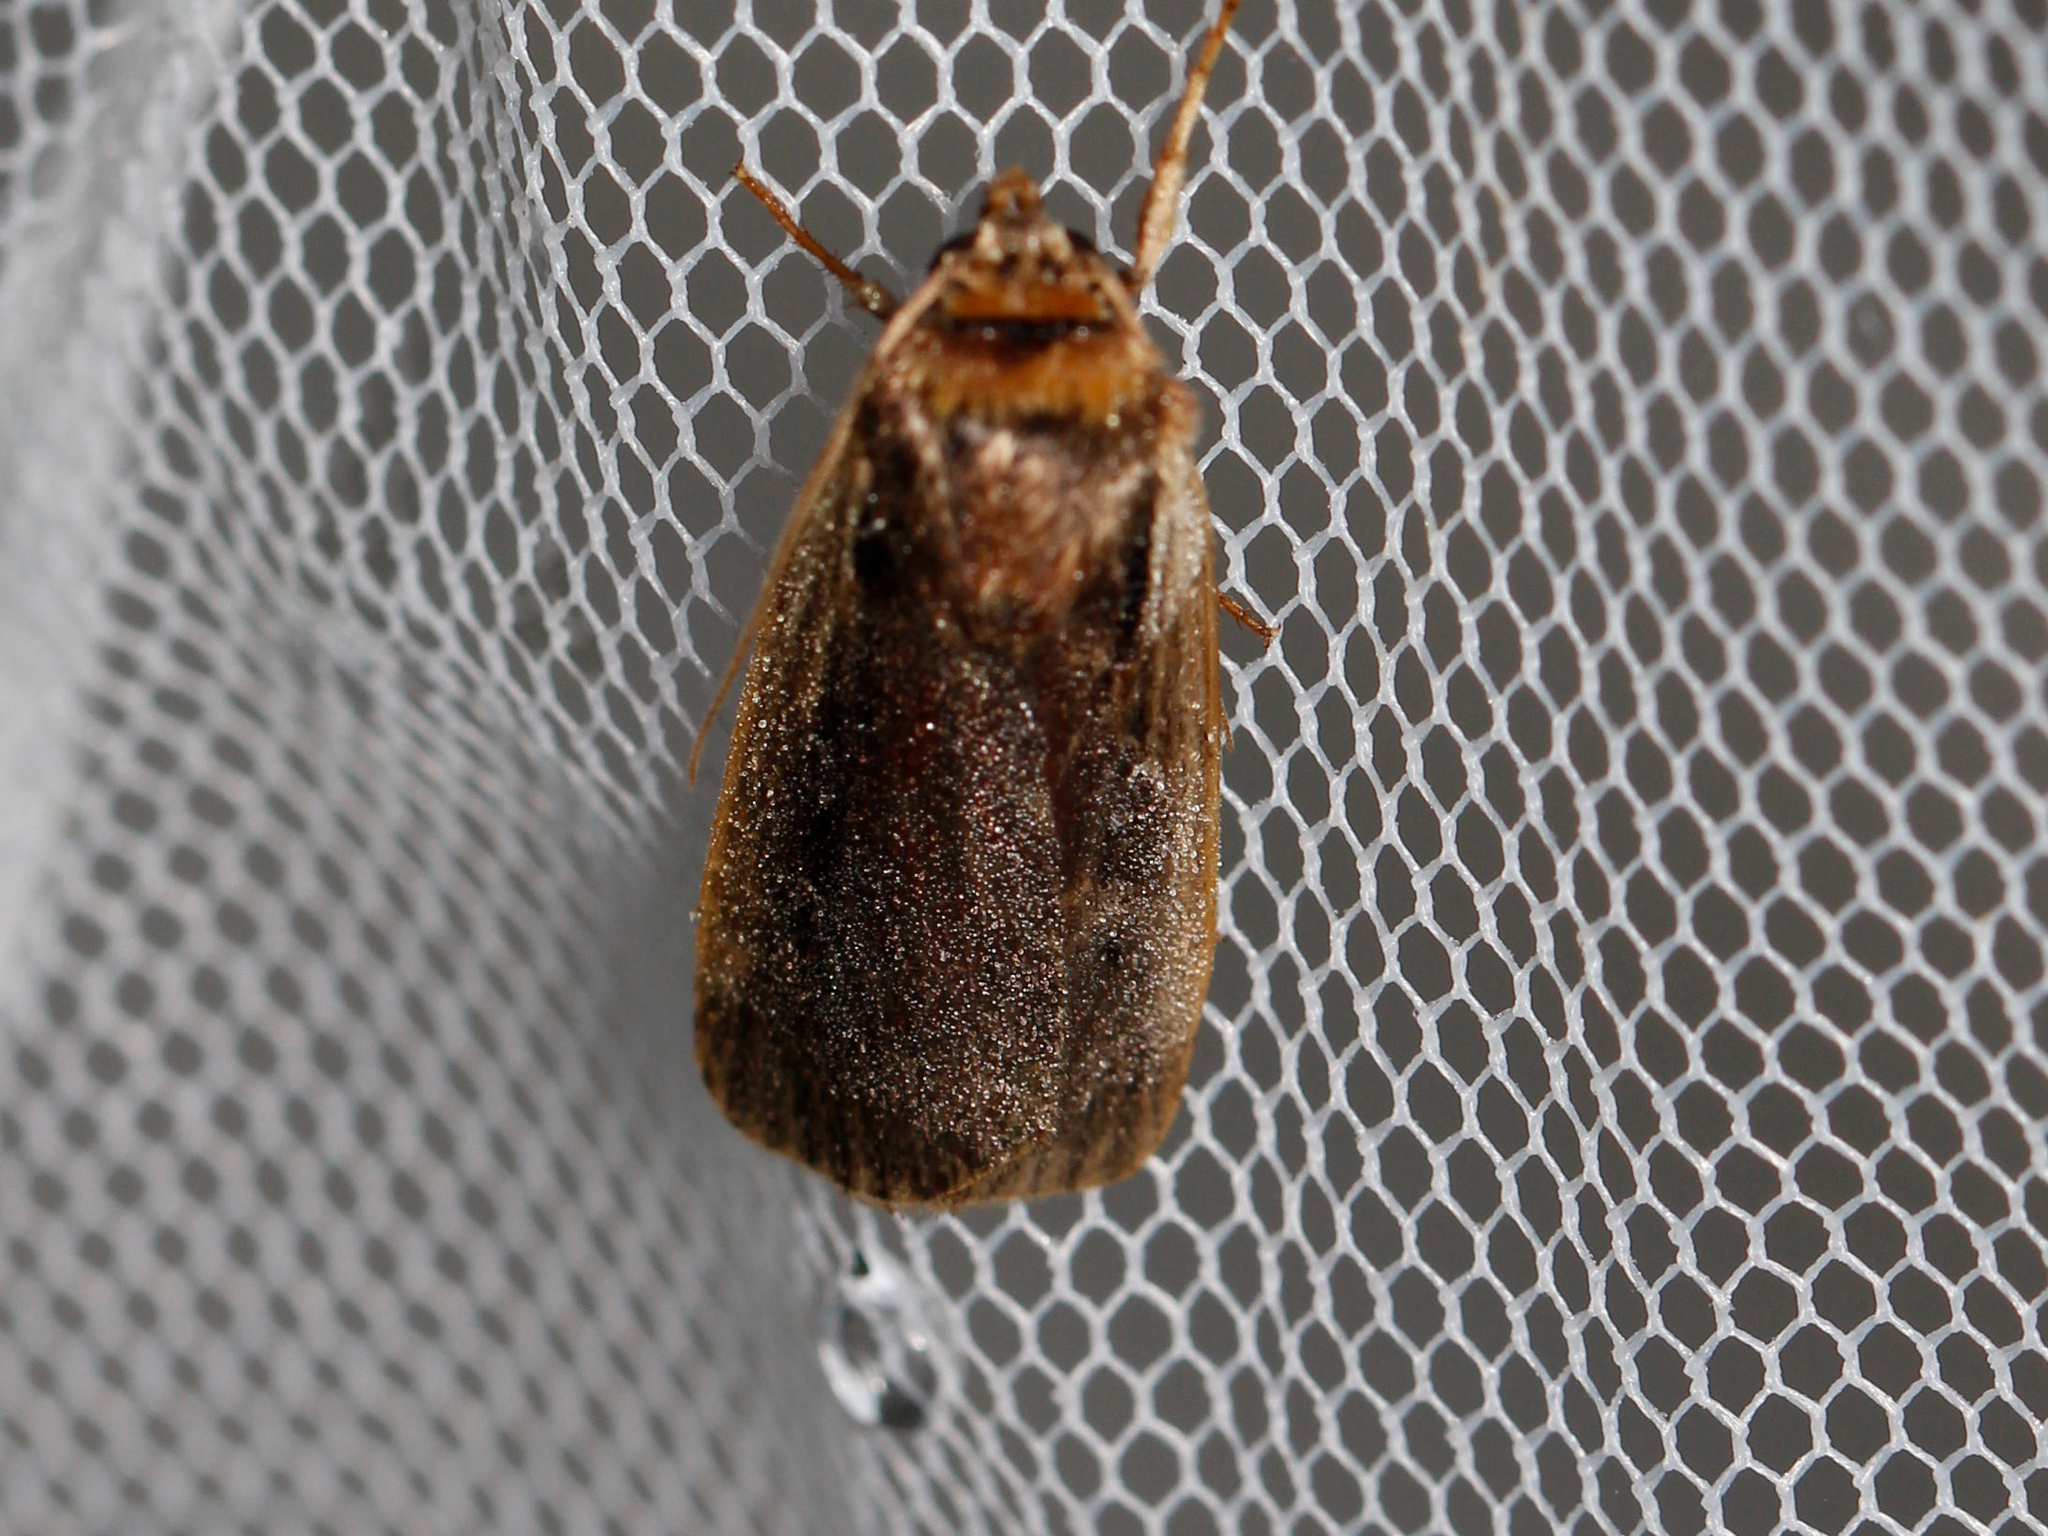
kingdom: Animalia
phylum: Arthropoda
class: Insecta
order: Lepidoptera
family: Noctuidae
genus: Ochropleura
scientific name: Ochropleura implecta
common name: Flame-shouldered dart
